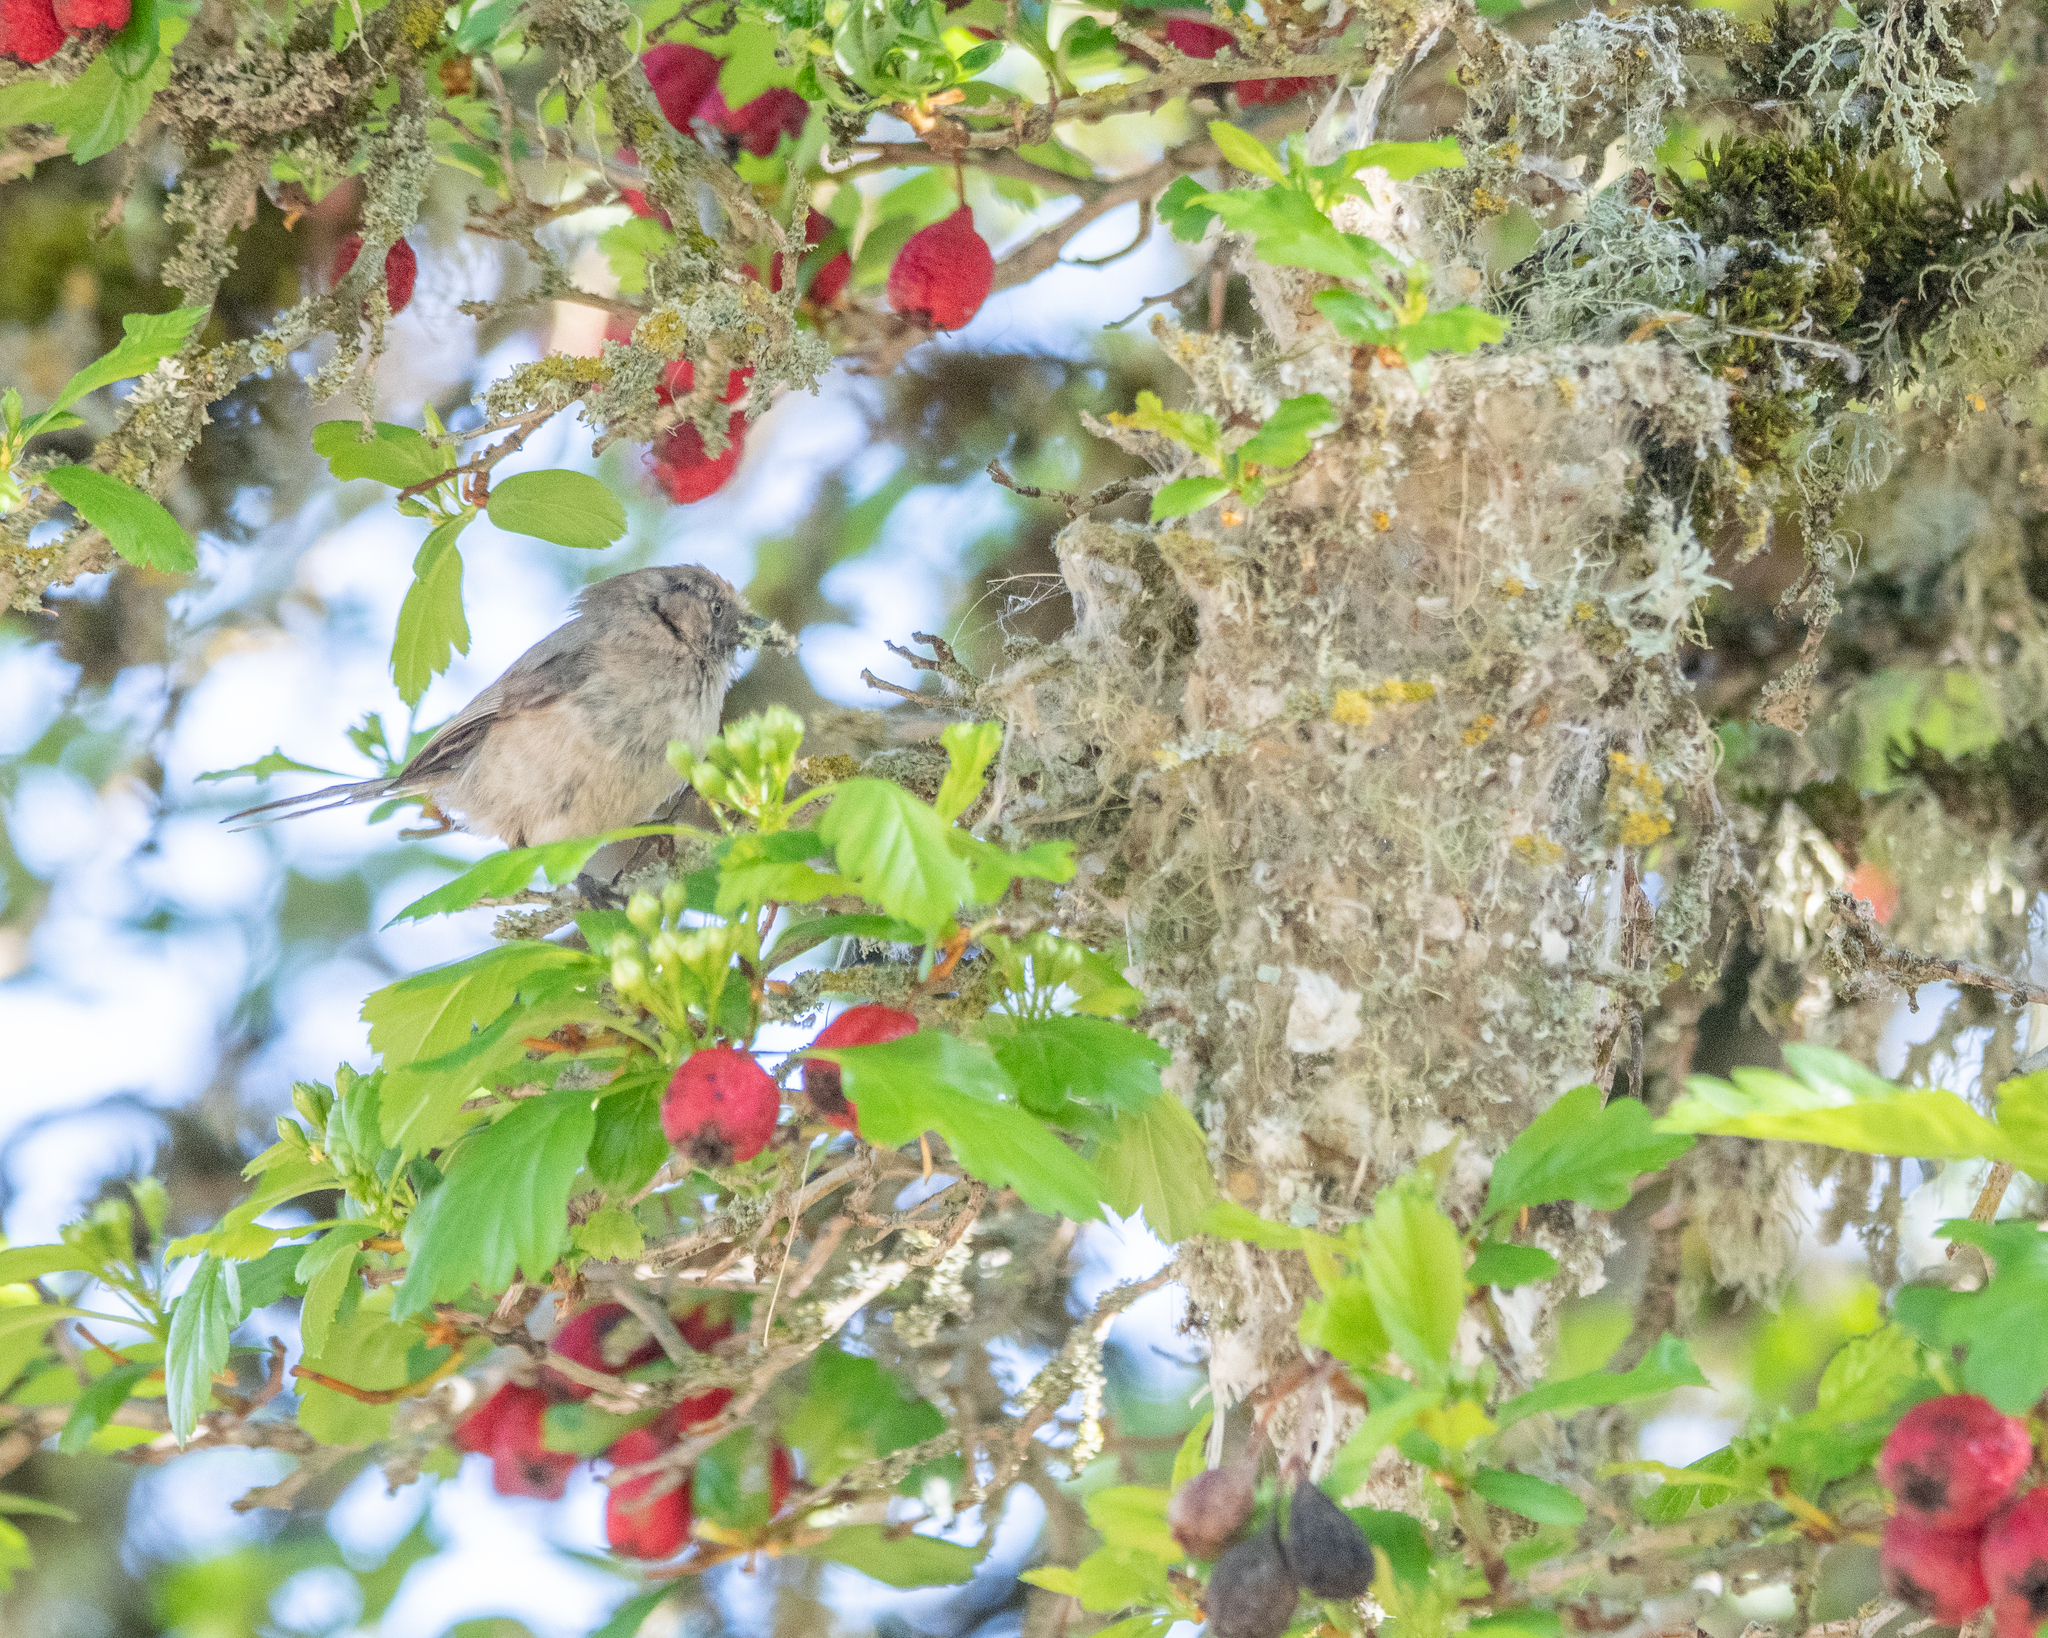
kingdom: Animalia
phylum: Chordata
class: Aves
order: Passeriformes
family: Aegithalidae
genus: Psaltriparus
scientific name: Psaltriparus minimus
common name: American bushtit
